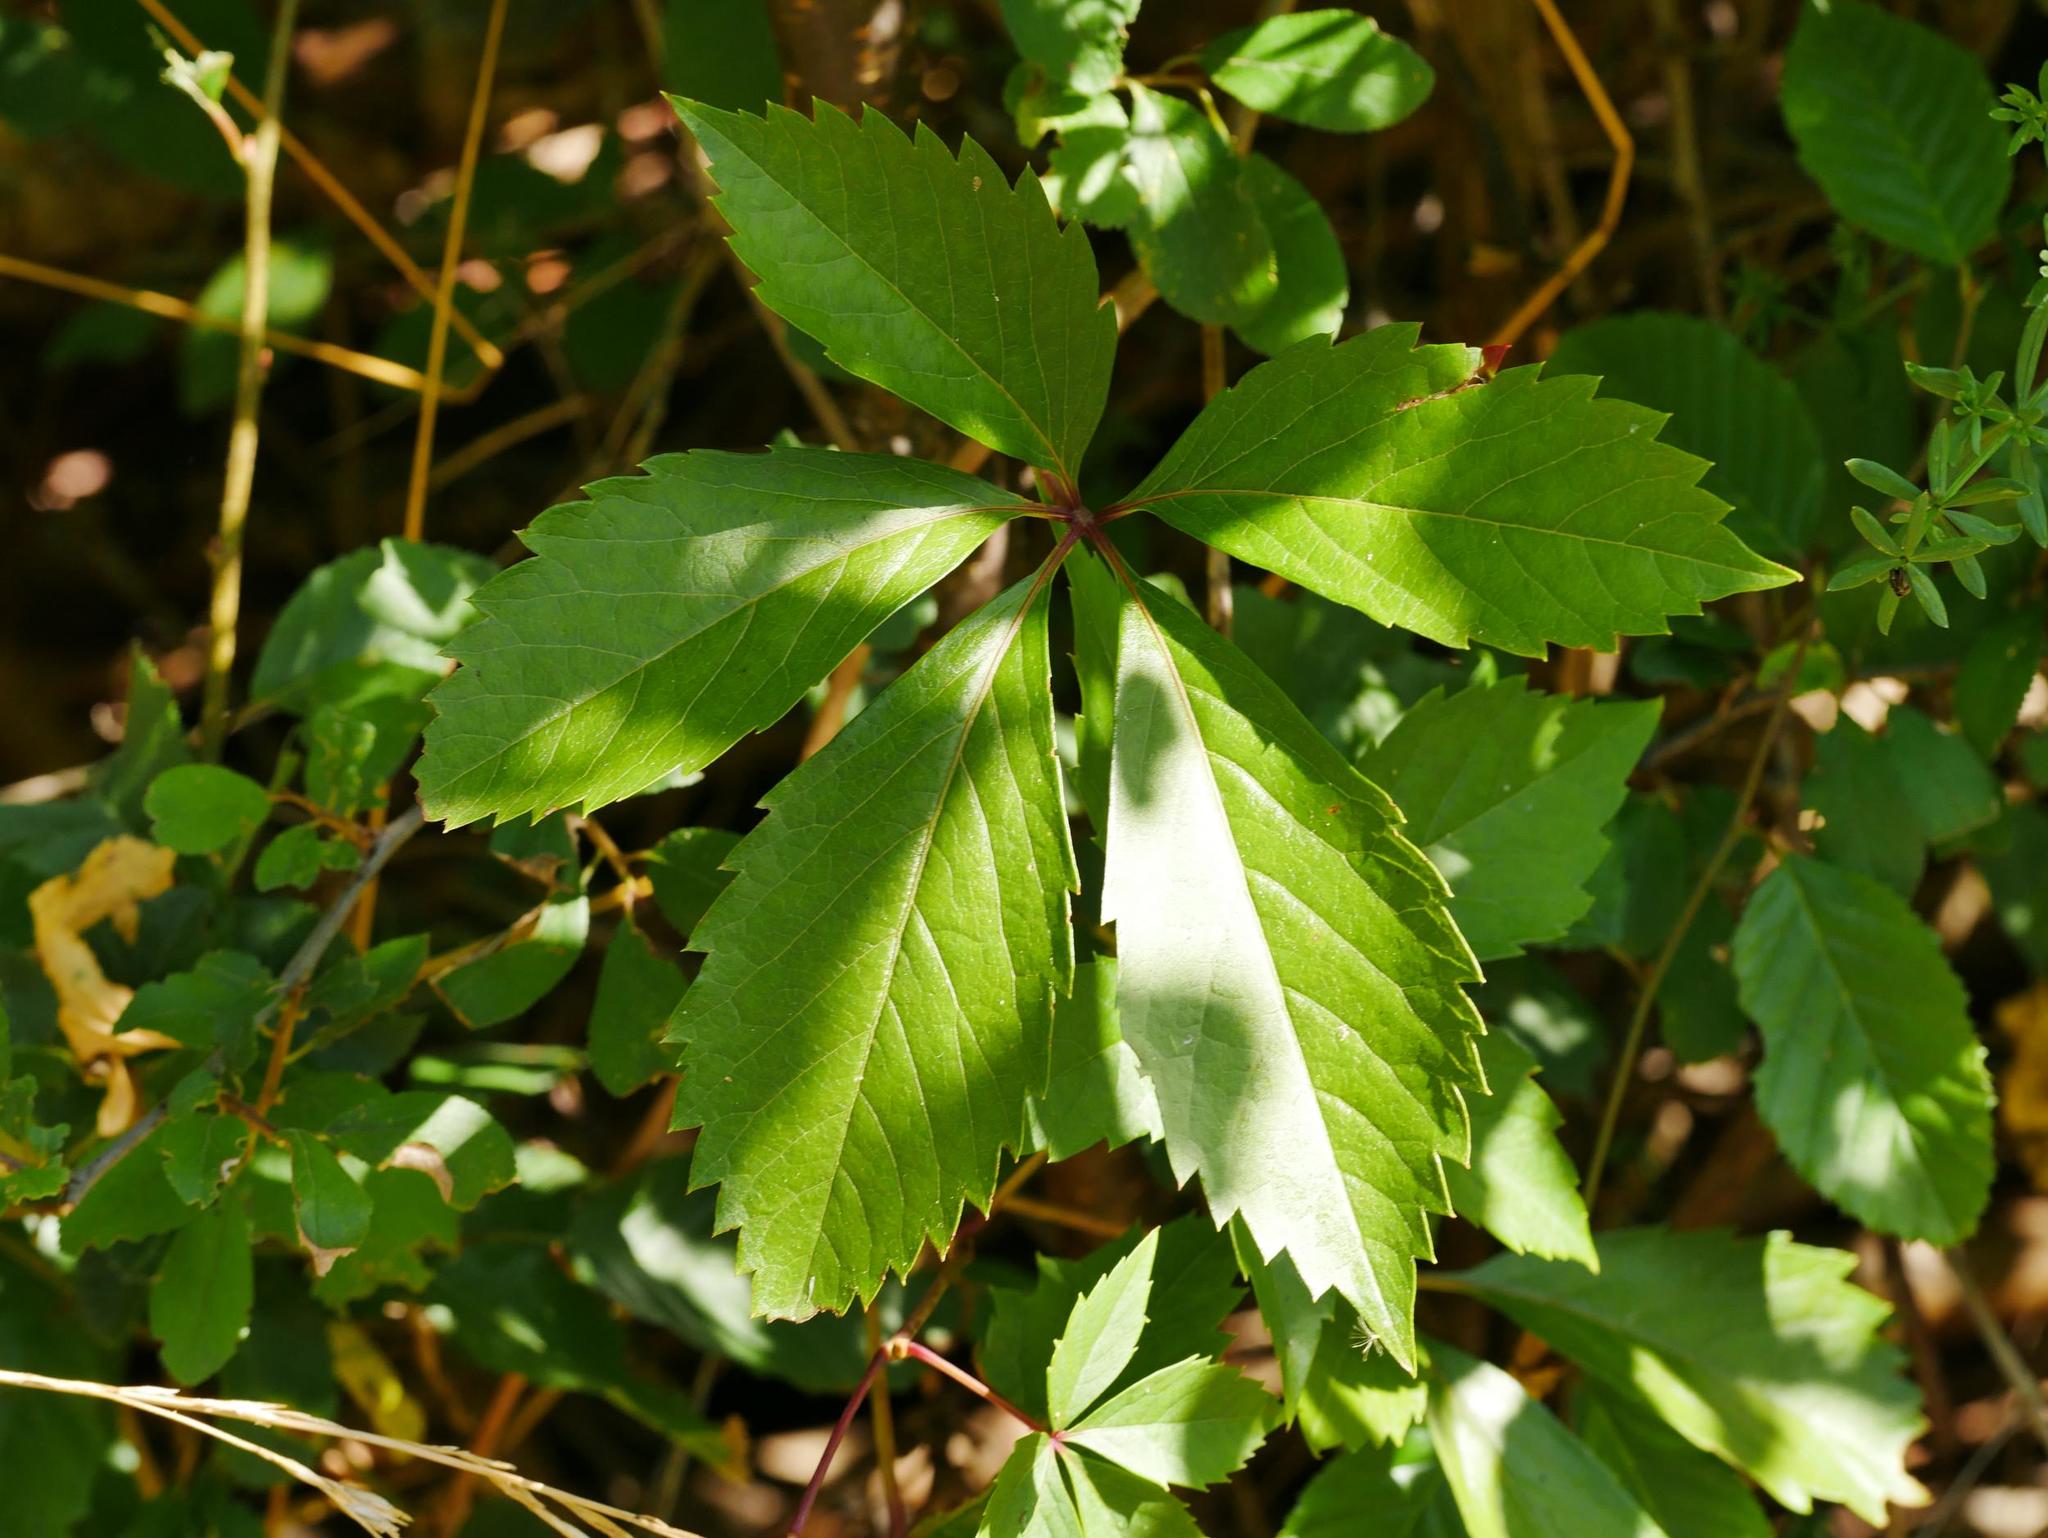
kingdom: Plantae
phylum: Tracheophyta
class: Magnoliopsida
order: Vitales
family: Vitaceae
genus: Parthenocissus
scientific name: Parthenocissus inserta
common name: False virginia-creeper
